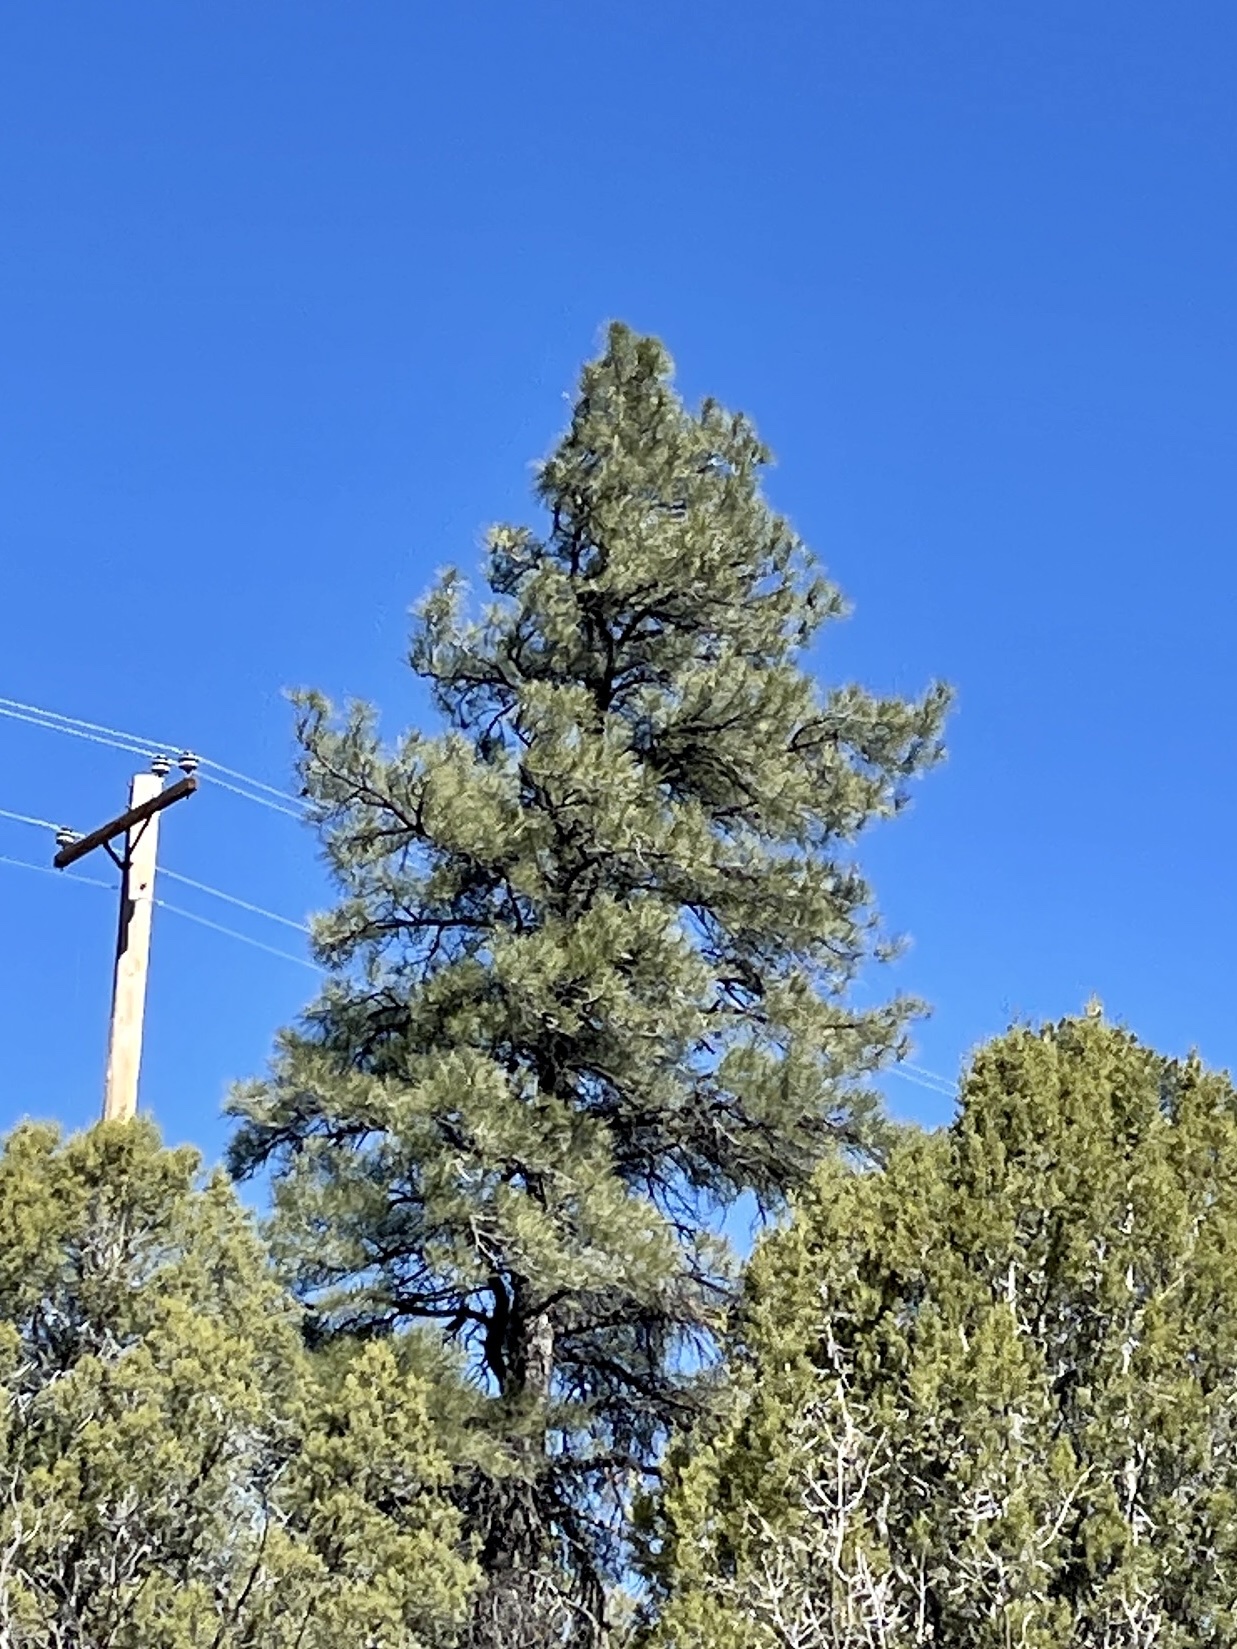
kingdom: Plantae
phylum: Tracheophyta
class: Pinopsida
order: Pinales
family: Pinaceae
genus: Pinus
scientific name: Pinus ponderosa
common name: Western yellow-pine
